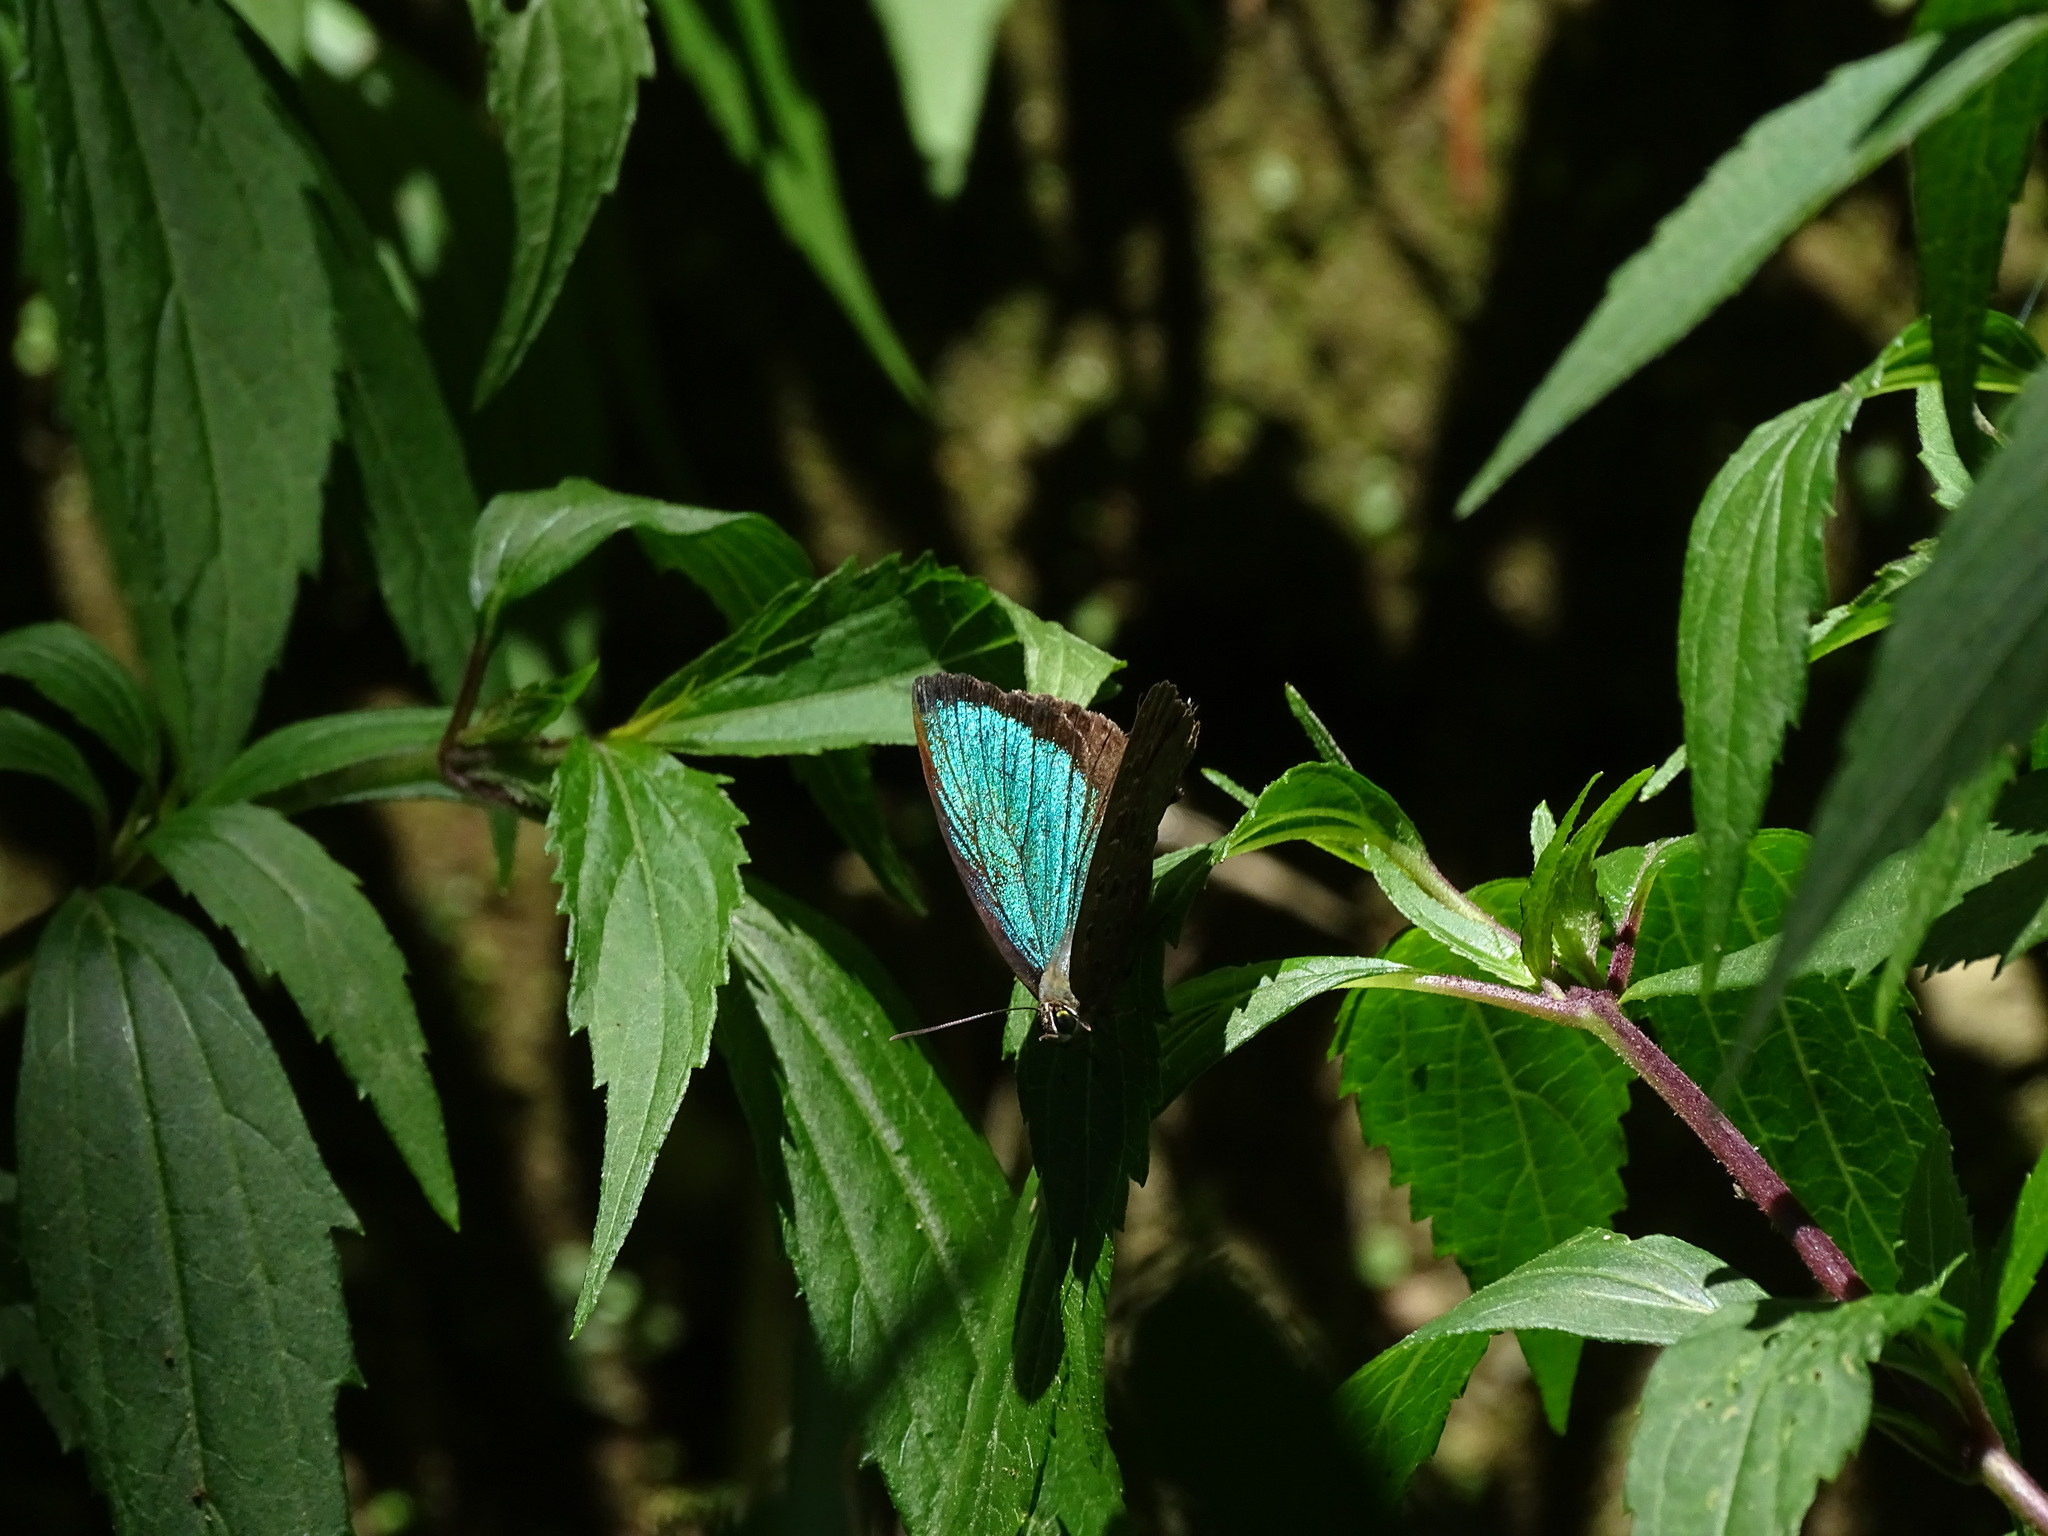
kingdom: Animalia
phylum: Arthropoda
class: Insecta
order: Lepidoptera
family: Lycaenidae
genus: Arhopala
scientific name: Arhopala eumolphus
